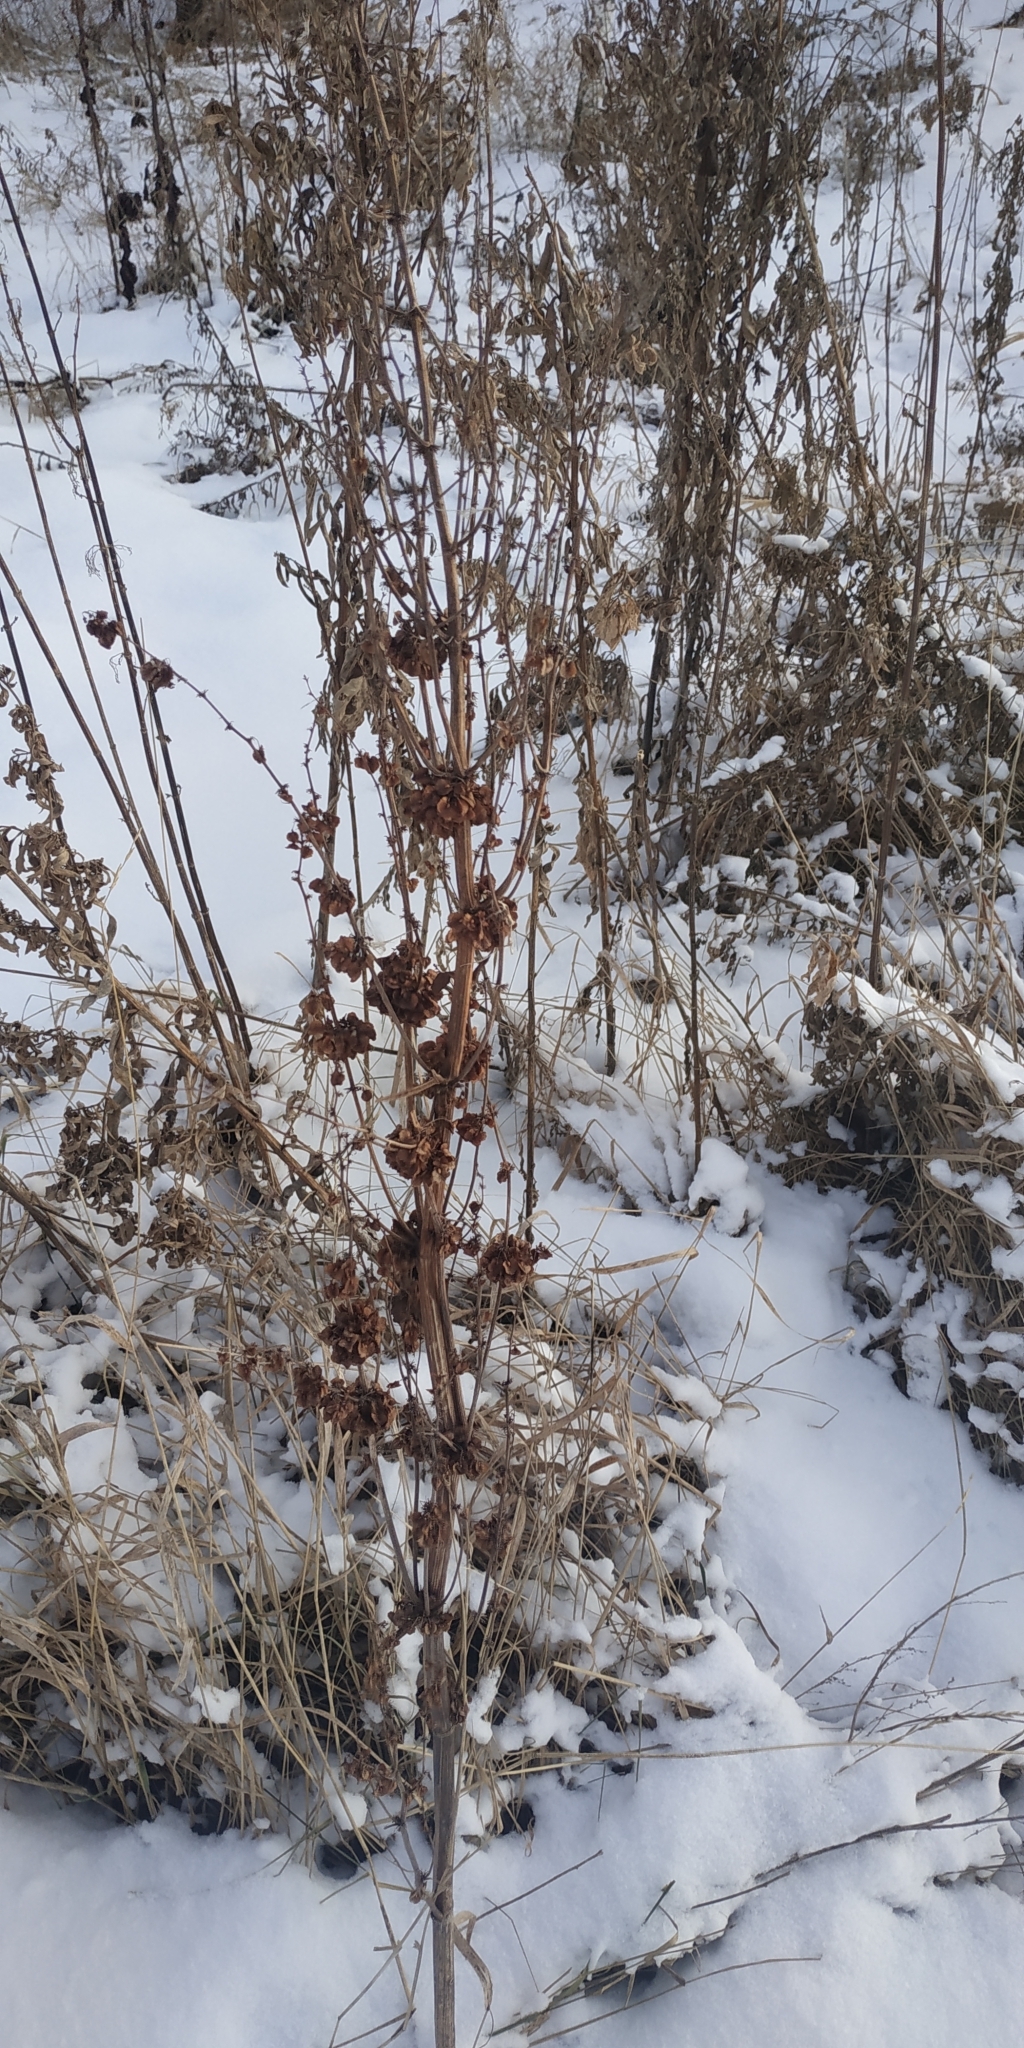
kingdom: Plantae
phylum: Tracheophyta
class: Magnoliopsida
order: Caryophyllales
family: Polygonaceae
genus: Rumex
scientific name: Rumex confertus
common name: Russian dock
